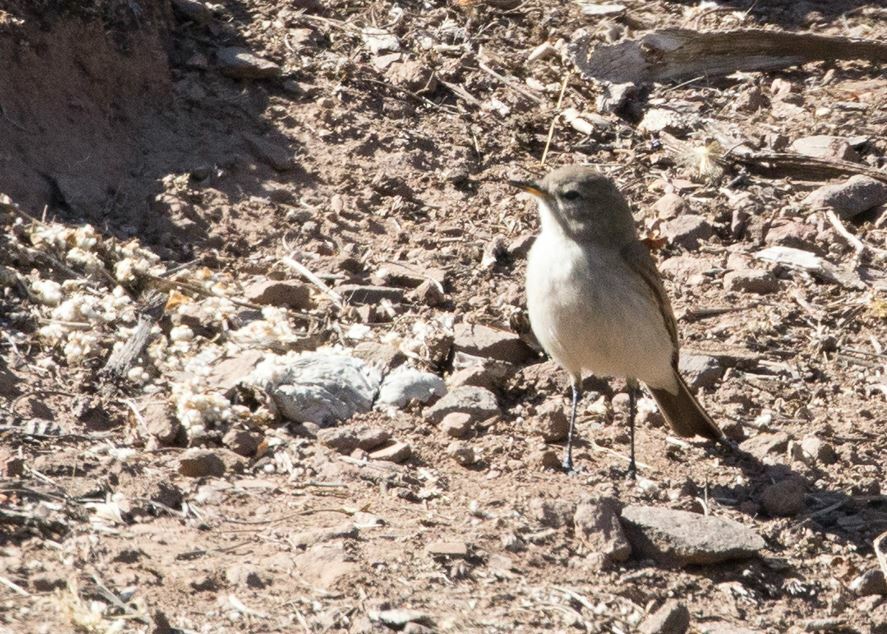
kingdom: Animalia
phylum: Chordata
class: Aves
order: Passeriformes
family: Tyrannidae
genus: Muscisaxicola
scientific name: Muscisaxicola maculirostris
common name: Spot-billed ground tyrant
